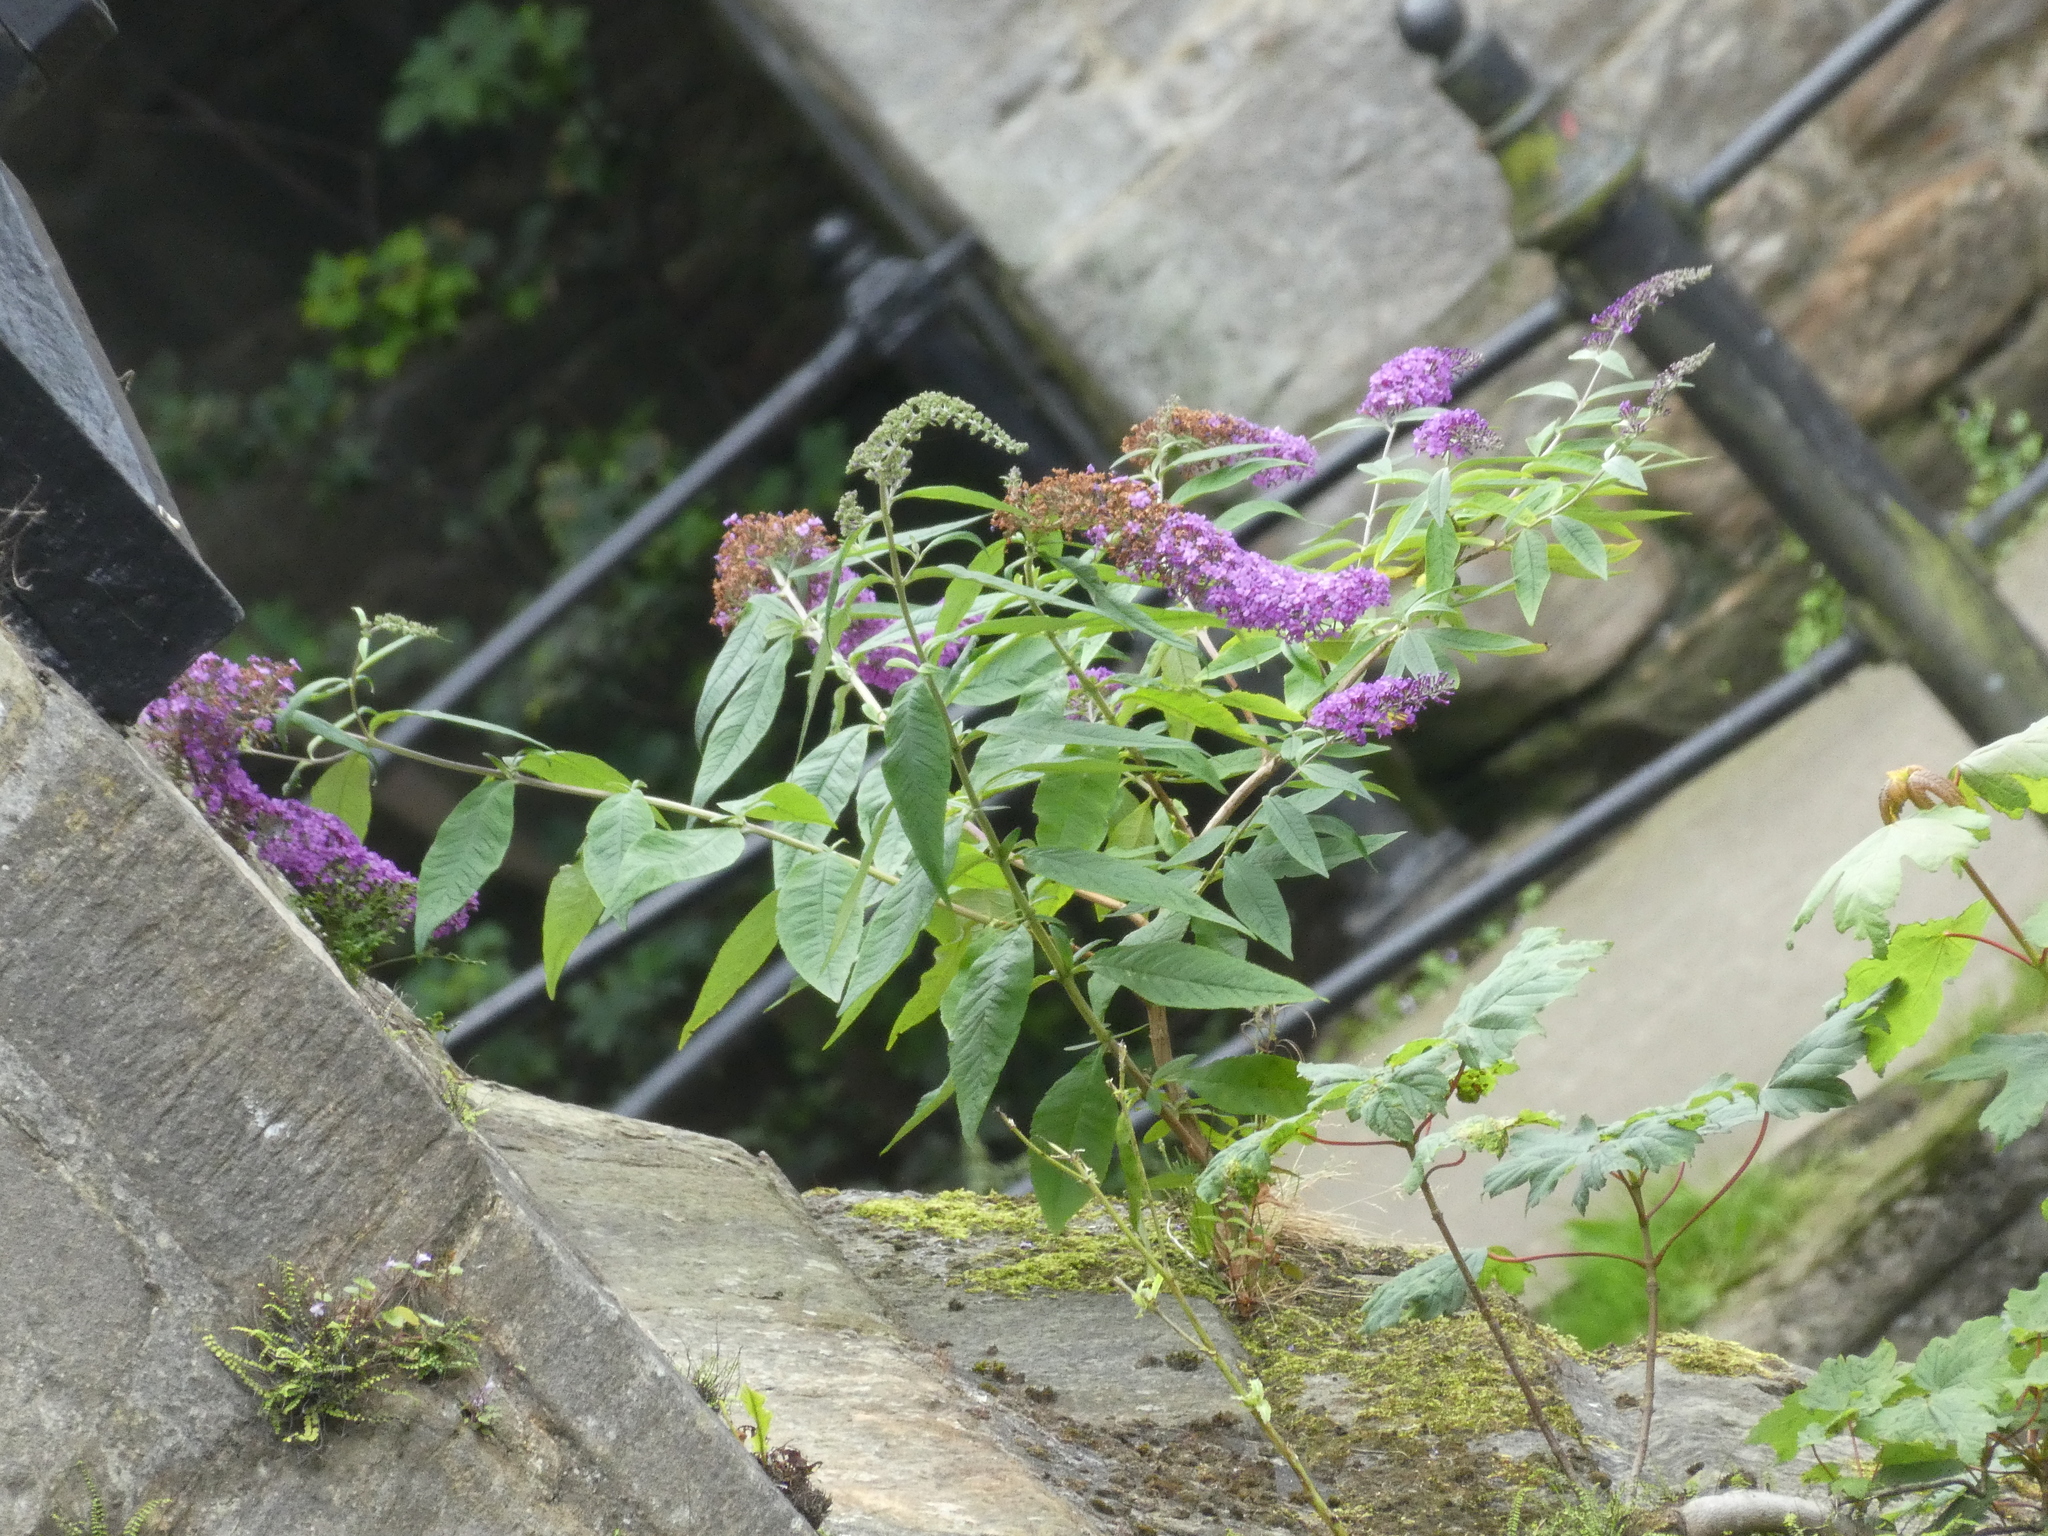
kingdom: Plantae
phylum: Tracheophyta
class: Magnoliopsida
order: Lamiales
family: Scrophulariaceae
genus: Buddleja
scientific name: Buddleja davidii
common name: Butterfly-bush
